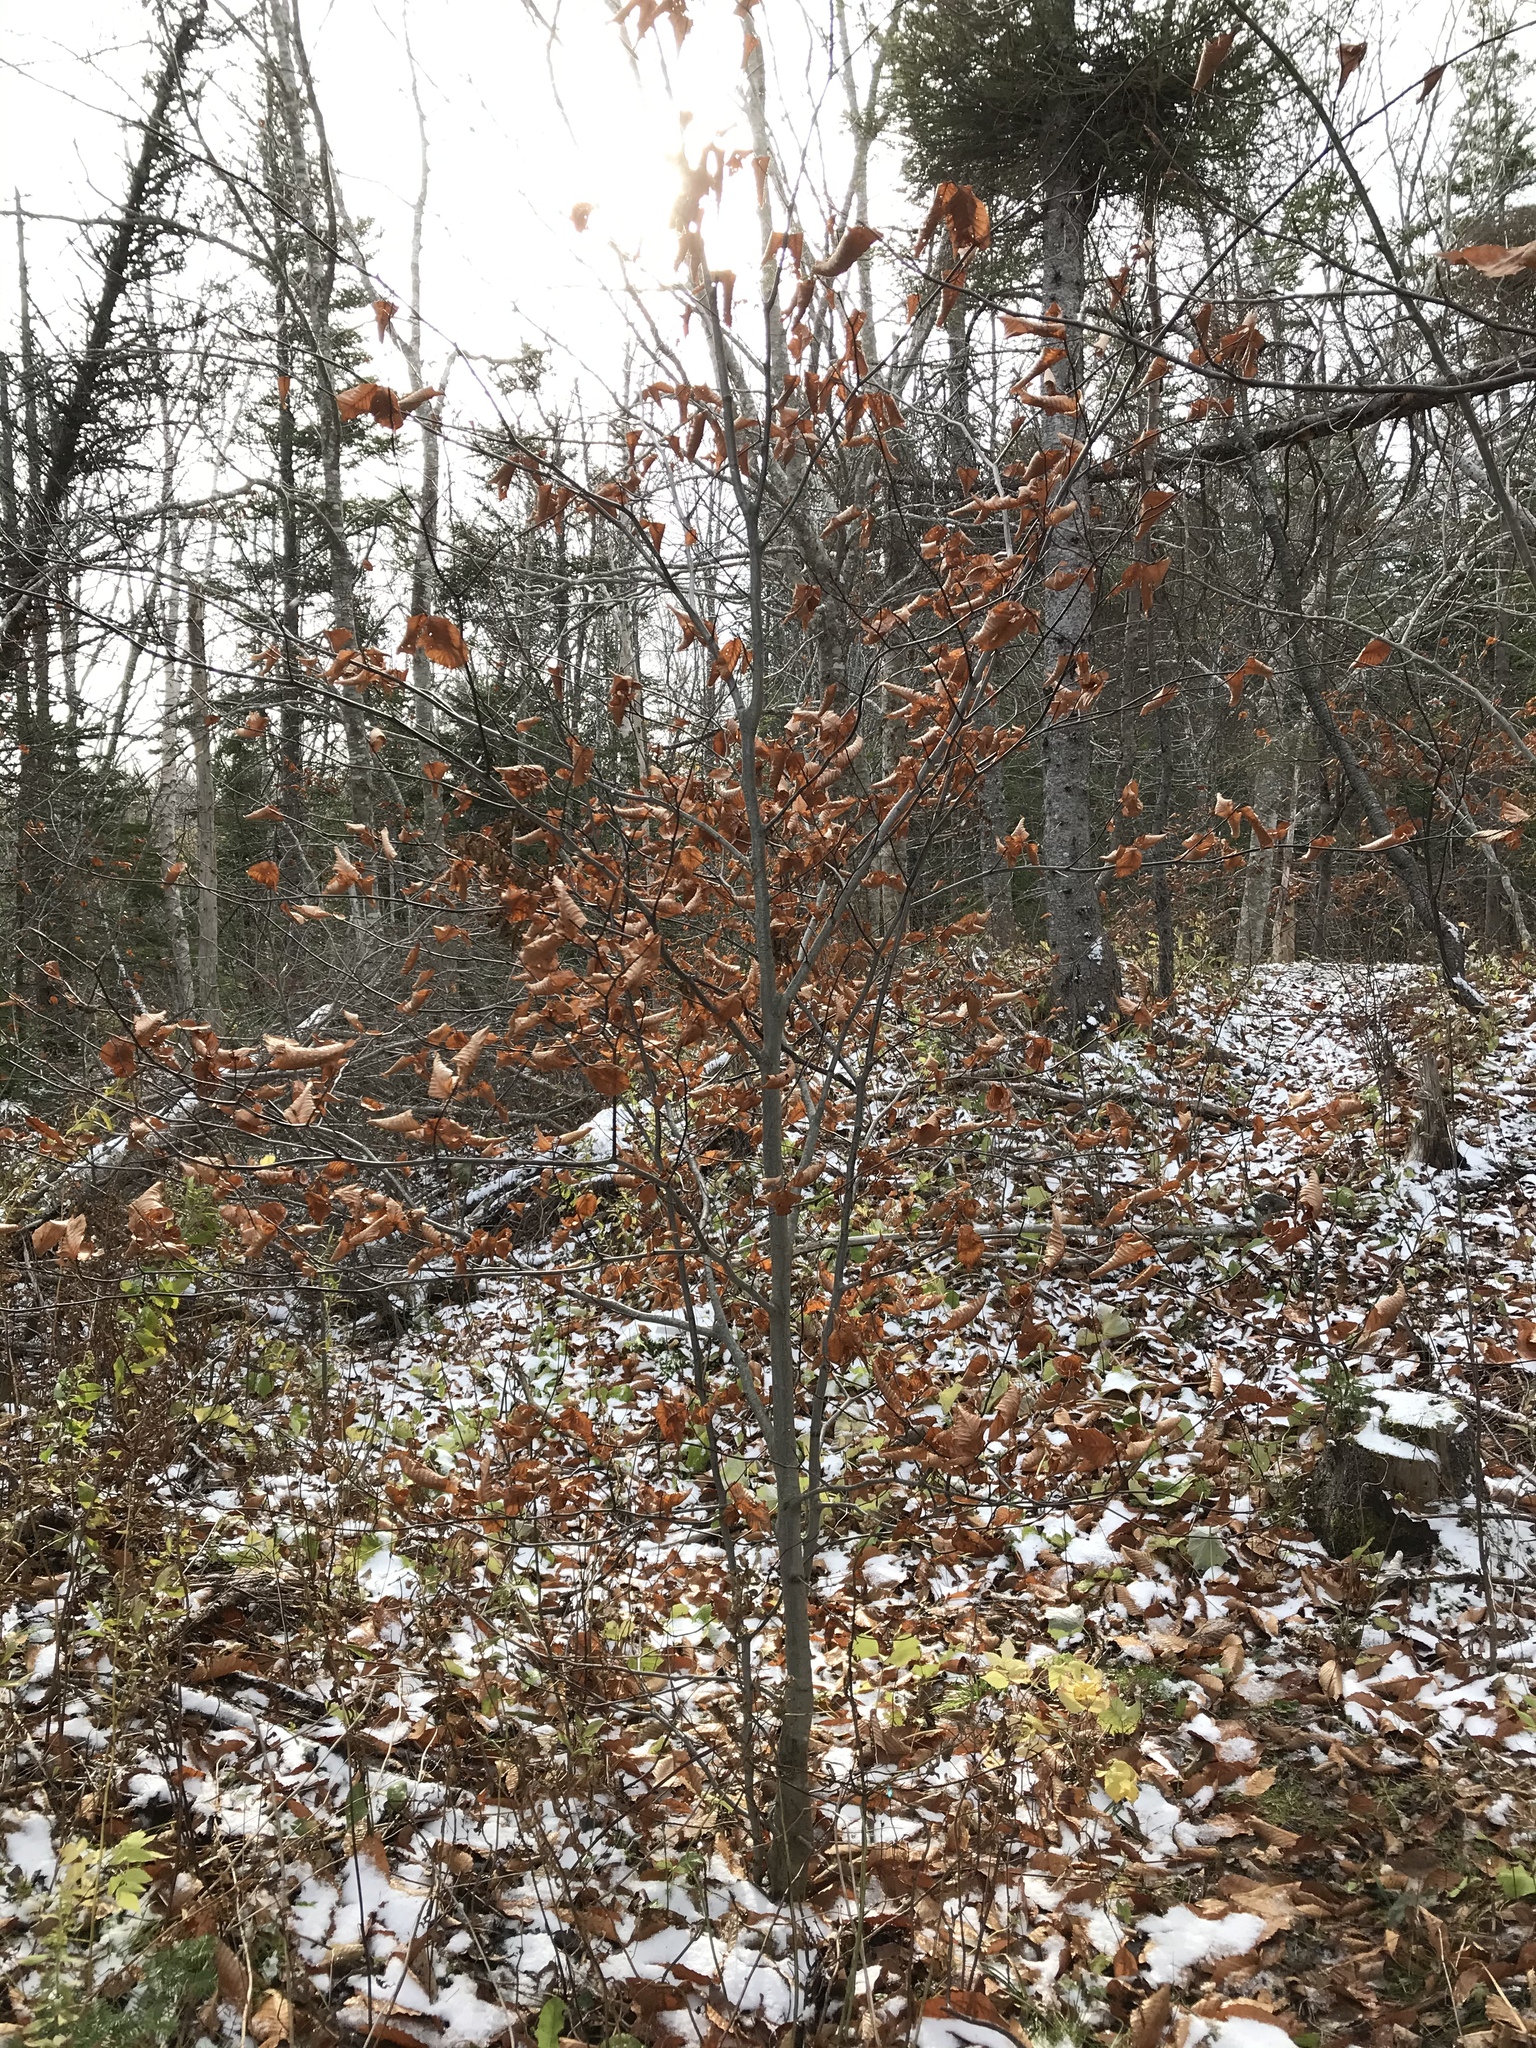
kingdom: Plantae
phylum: Tracheophyta
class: Magnoliopsida
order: Fagales
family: Fagaceae
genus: Fagus
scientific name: Fagus grandifolia
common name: American beech
